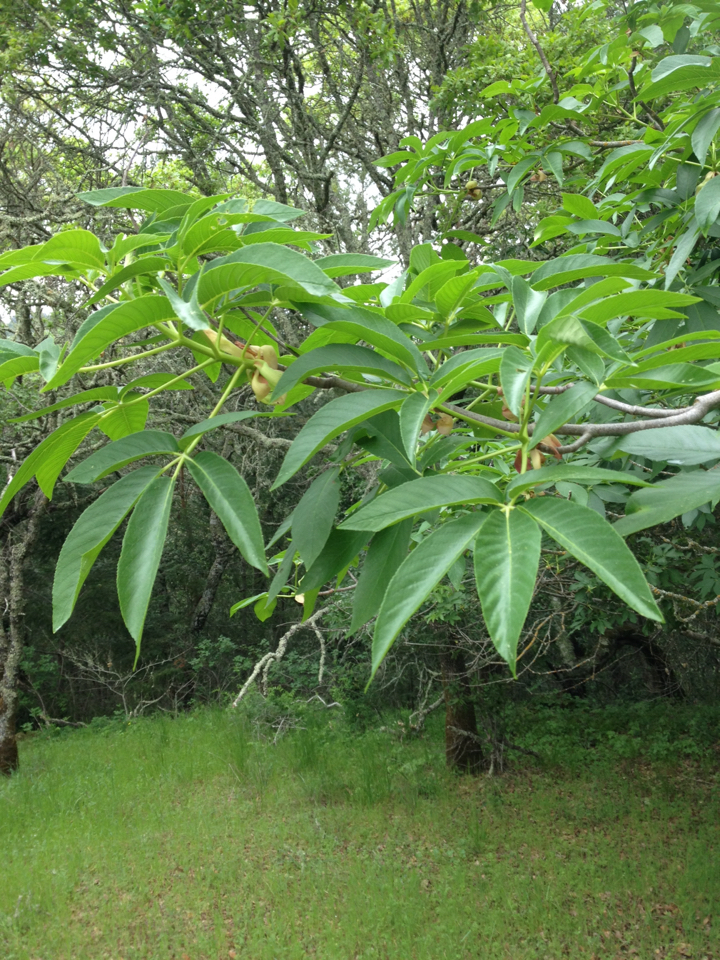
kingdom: Plantae
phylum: Tracheophyta
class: Magnoliopsida
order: Sapindales
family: Sapindaceae
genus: Aesculus
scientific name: Aesculus californica
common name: California buckeye
